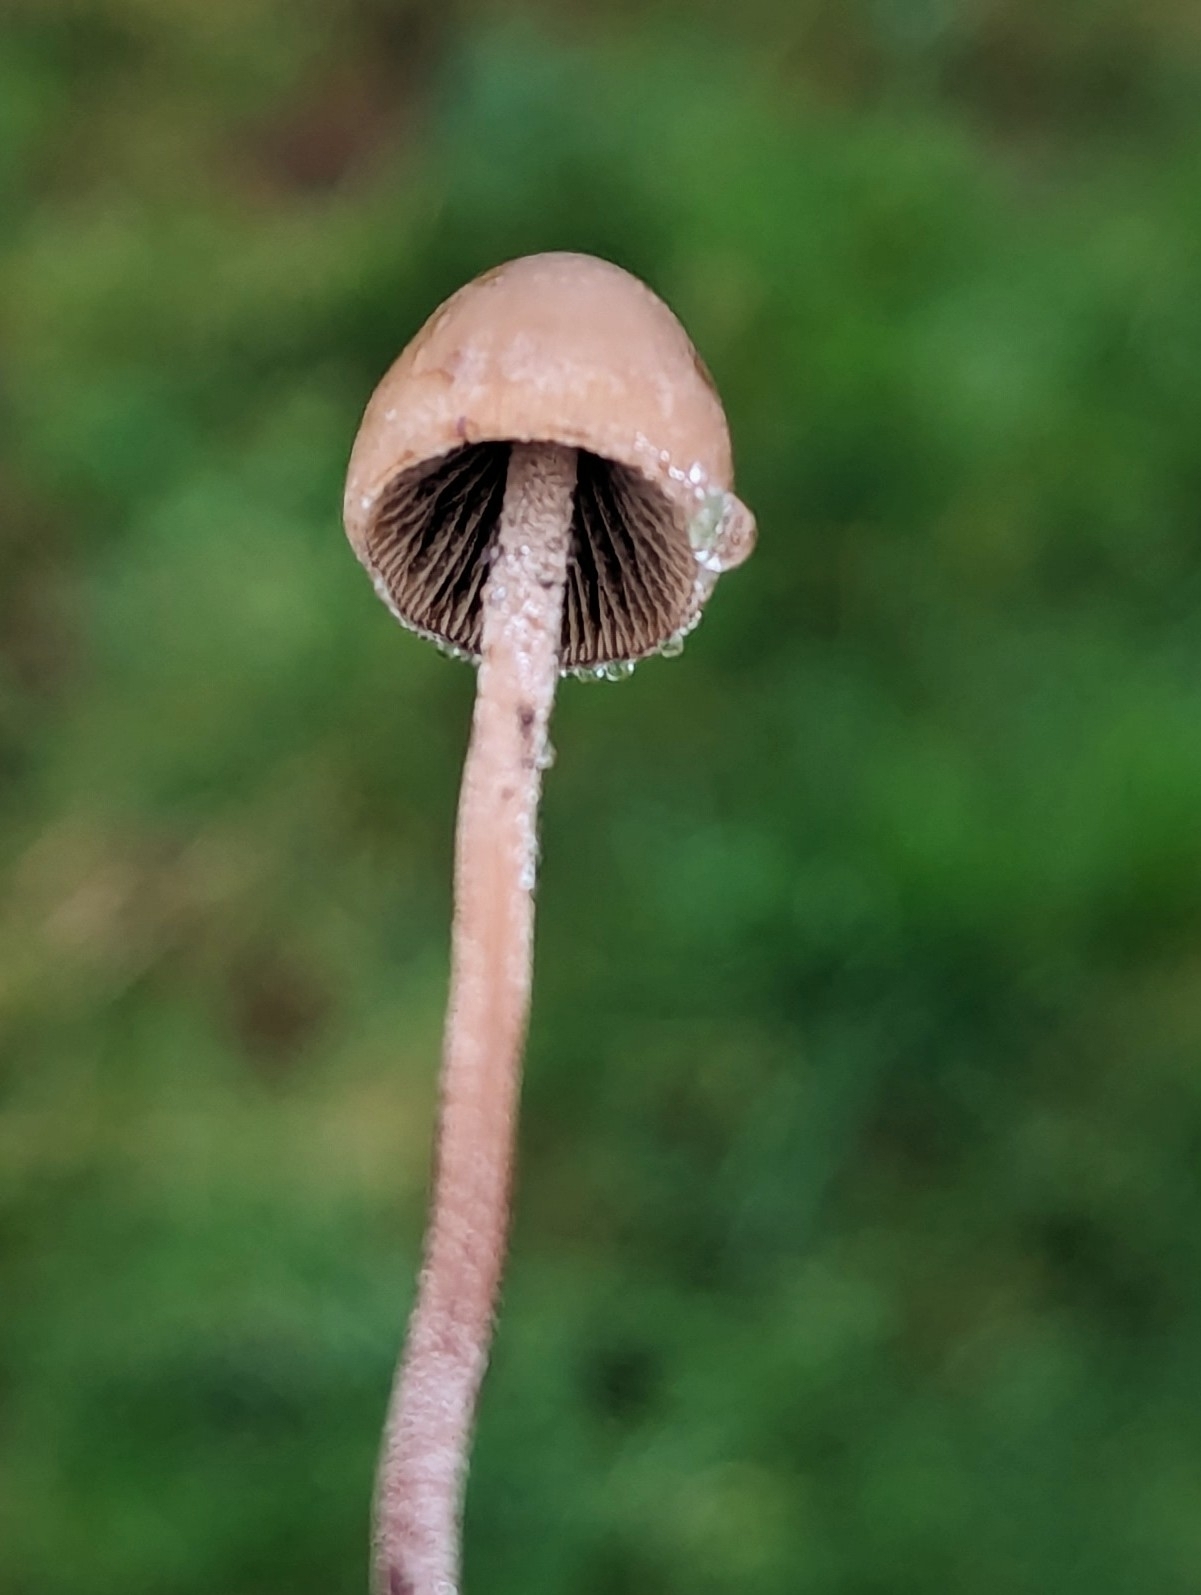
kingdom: Fungi
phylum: Basidiomycota
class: Agaricomycetes
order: Agaricales
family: Bolbitiaceae
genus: Panaeolus
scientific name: Panaeolus acuminatus
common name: Dewdrop mottlegill
